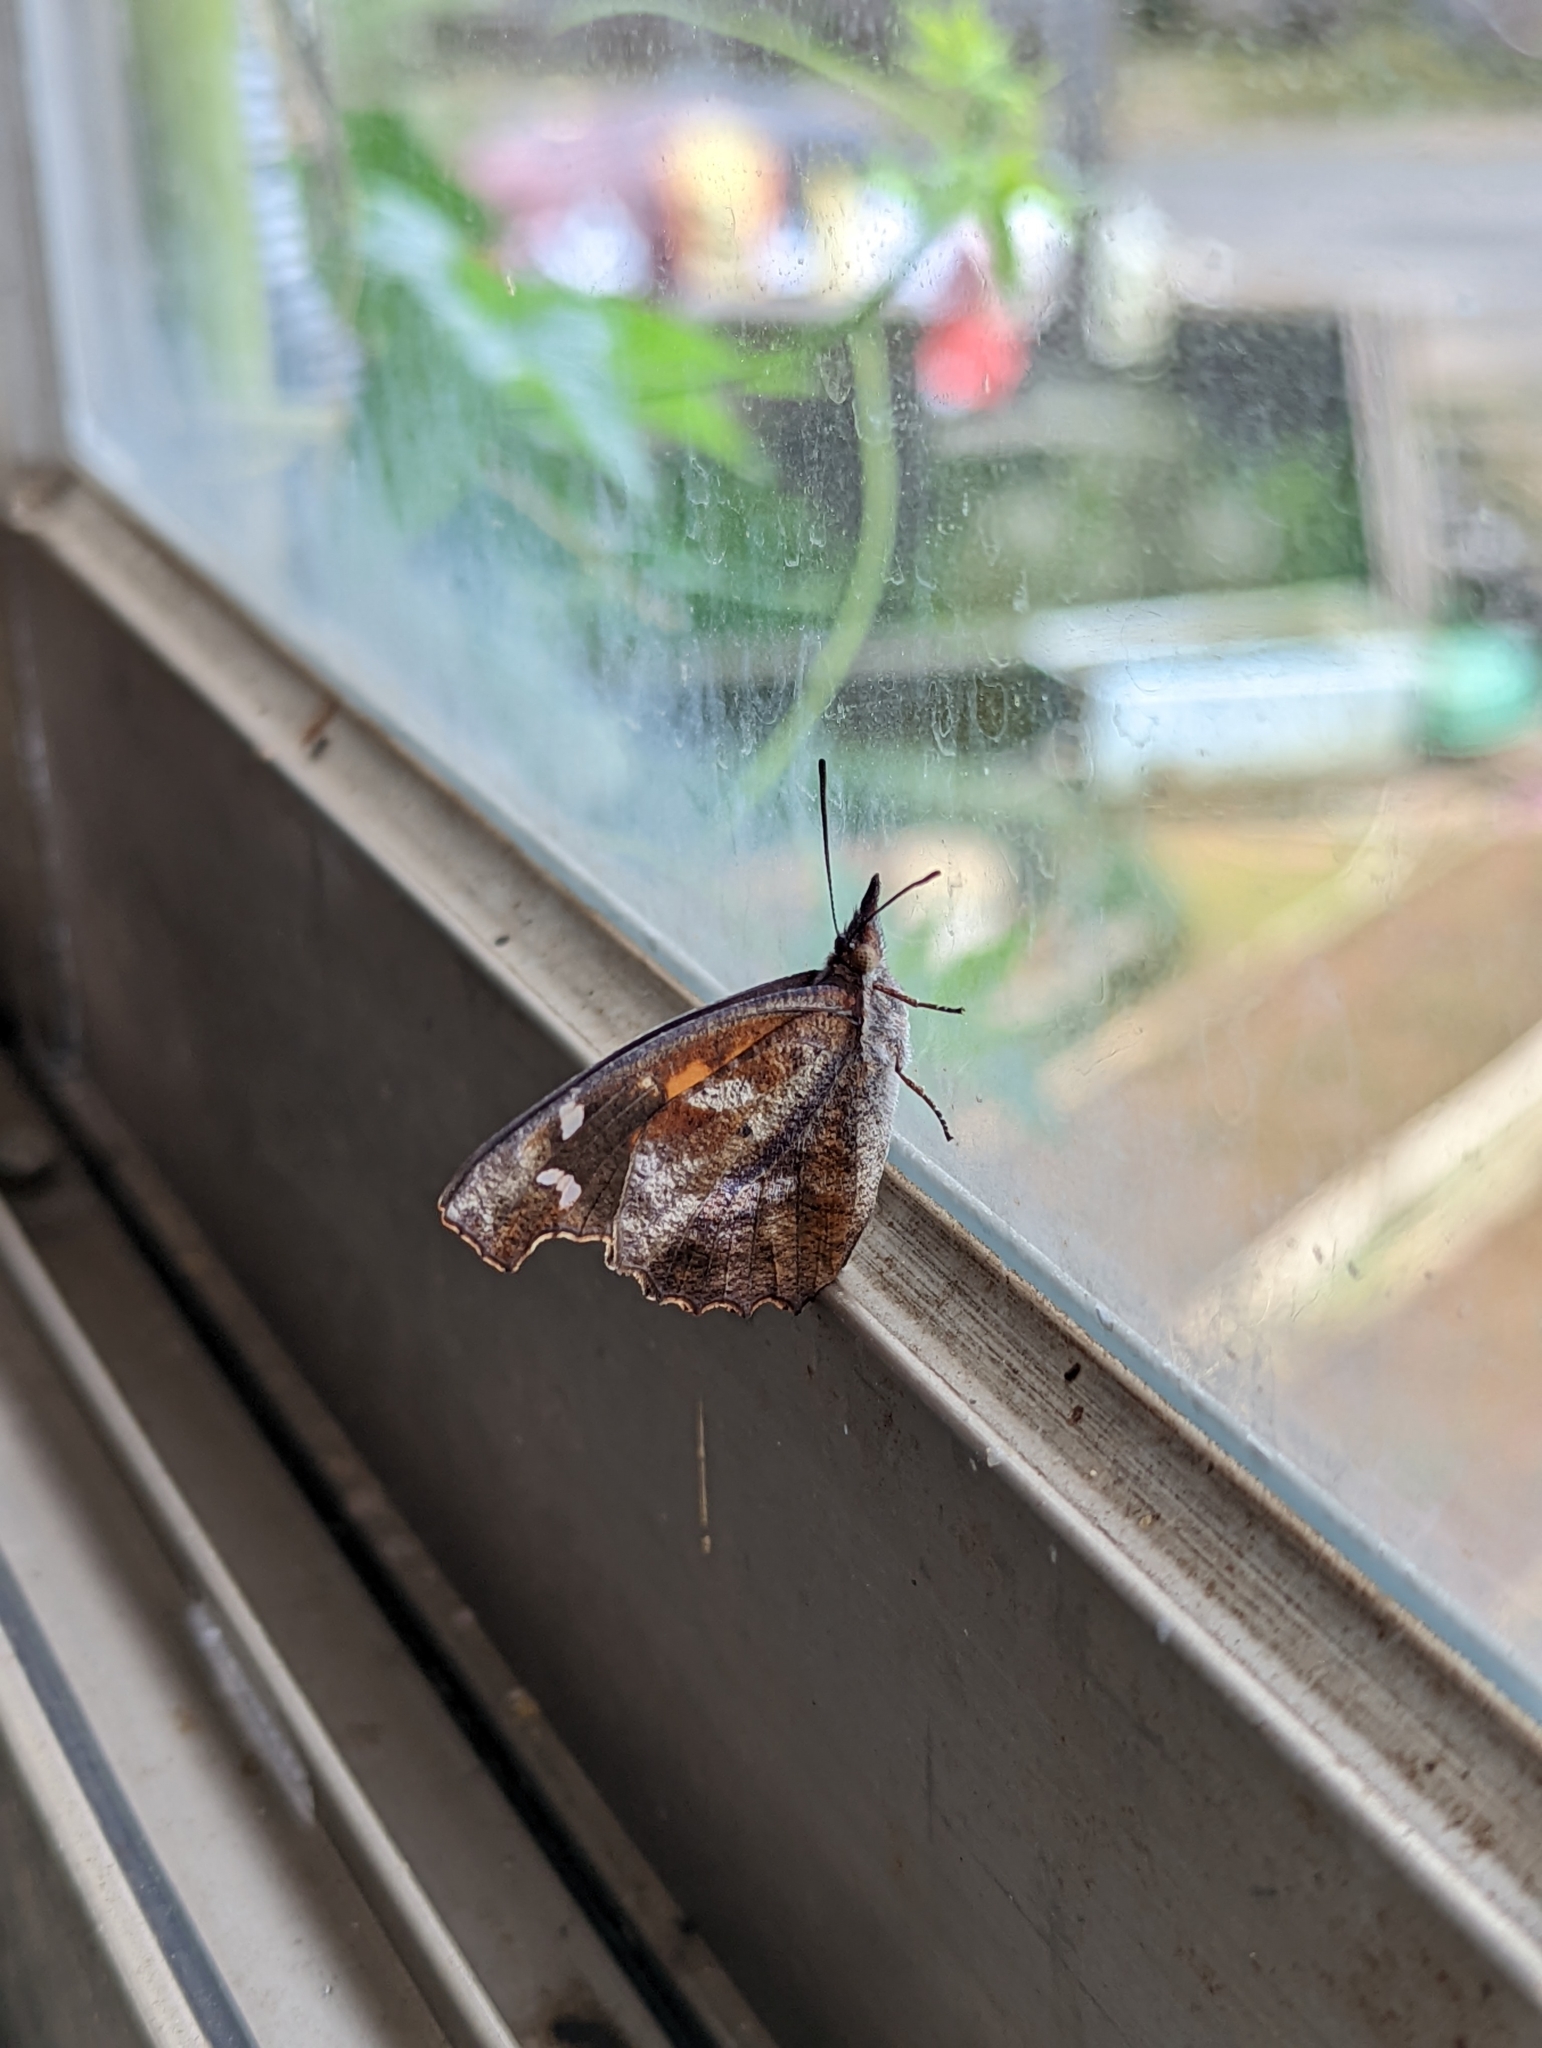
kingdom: Animalia
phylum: Arthropoda
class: Insecta
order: Lepidoptera
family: Nymphalidae
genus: Libythea
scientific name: Libythea lepita
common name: Common beak
